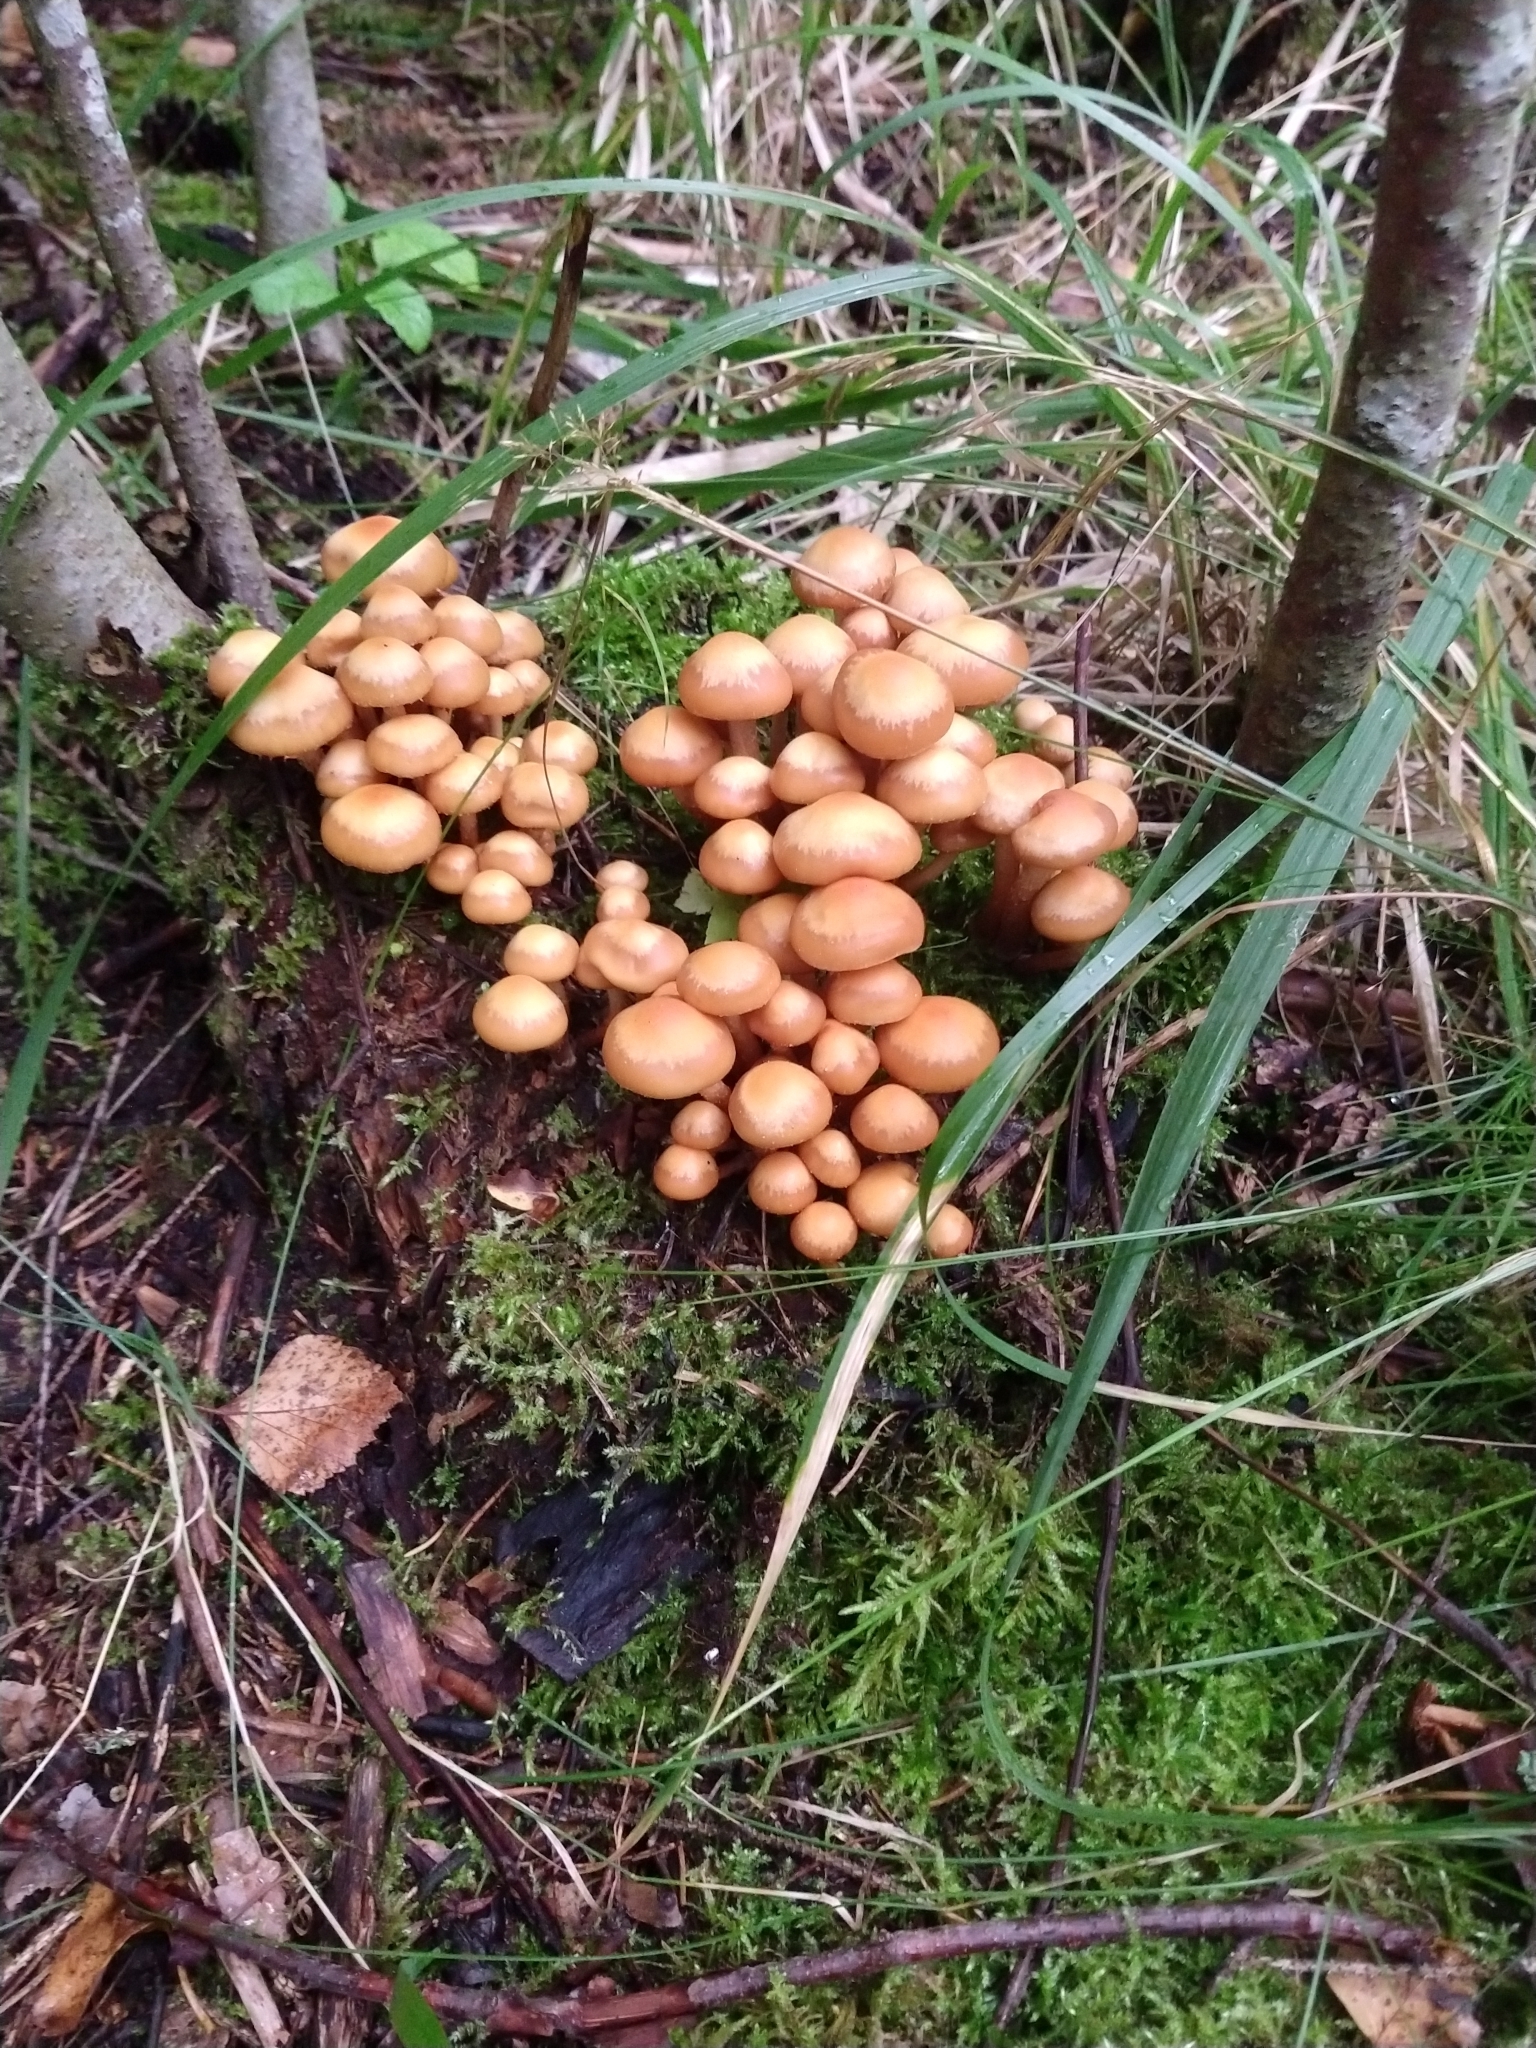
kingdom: Fungi
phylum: Basidiomycota
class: Agaricomycetes
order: Agaricales
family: Strophariaceae
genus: Kuehneromyces
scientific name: Kuehneromyces mutabilis
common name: Sheathed woodtuft
